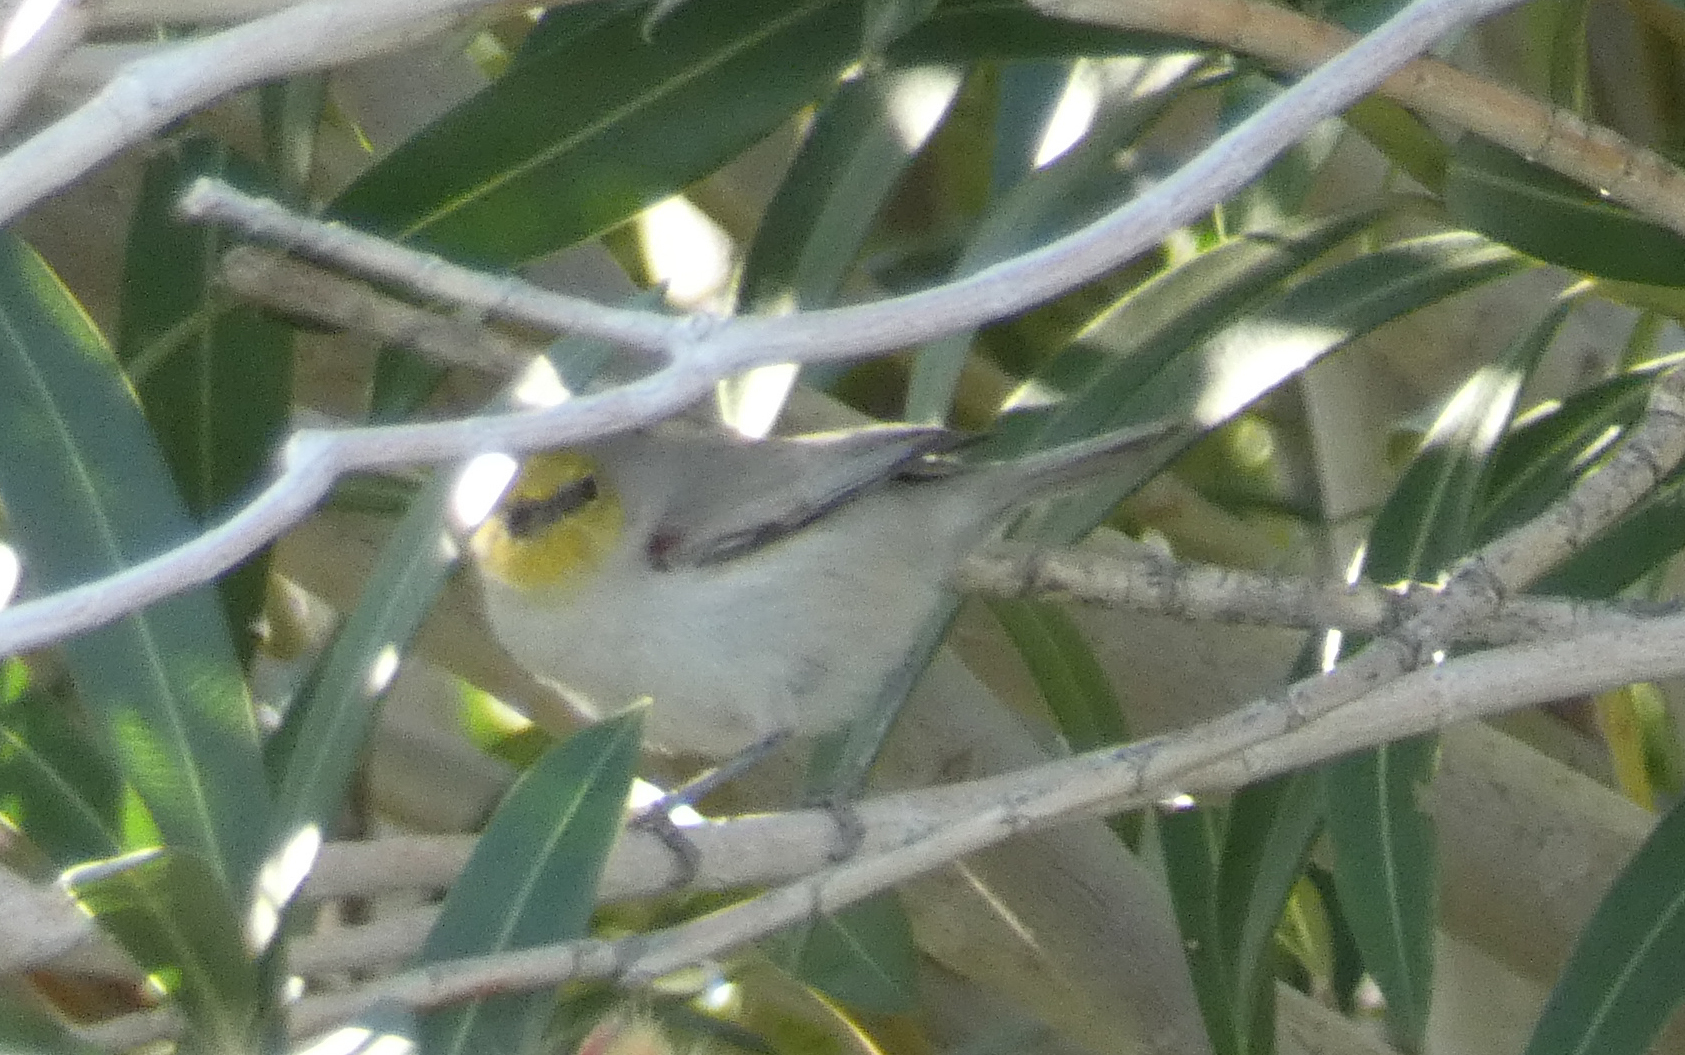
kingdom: Animalia
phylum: Chordata
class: Aves
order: Passeriformes
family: Remizidae
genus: Auriparus
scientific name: Auriparus flaviceps
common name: Verdin
